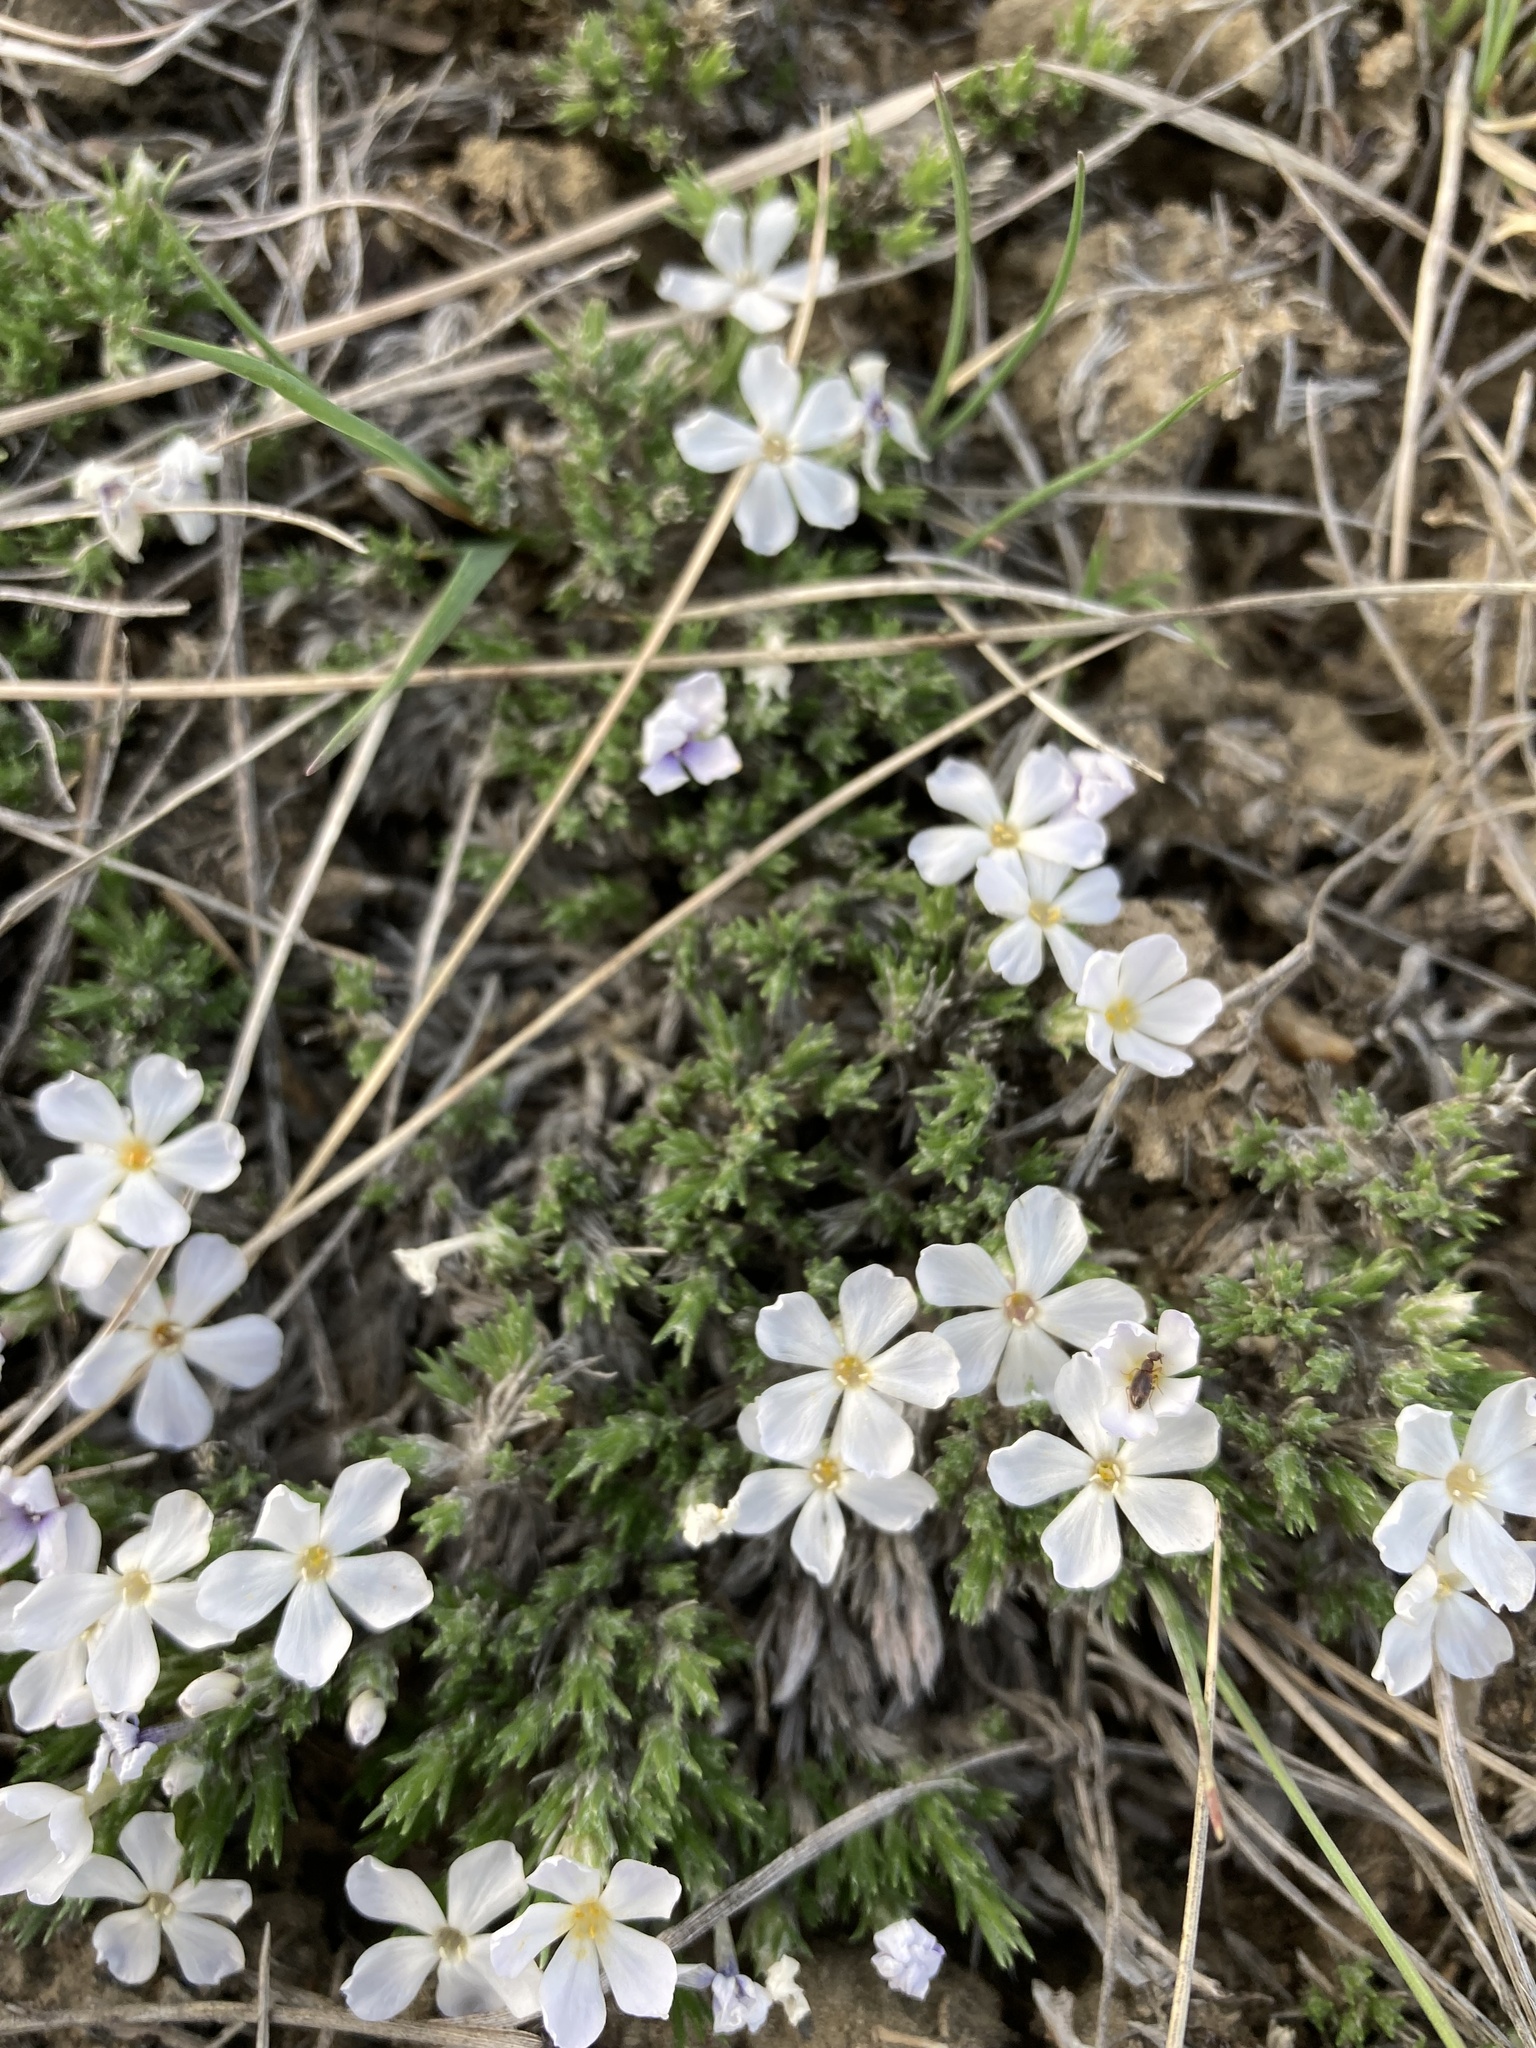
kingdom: Plantae
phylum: Tracheophyta
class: Magnoliopsida
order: Ericales
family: Polemoniaceae
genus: Phlox
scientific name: Phlox hoodii
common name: Moss phlox
